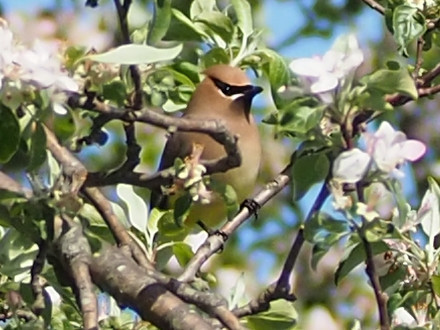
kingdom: Animalia
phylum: Chordata
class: Aves
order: Passeriformes
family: Bombycillidae
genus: Bombycilla
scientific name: Bombycilla cedrorum
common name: Cedar waxwing
